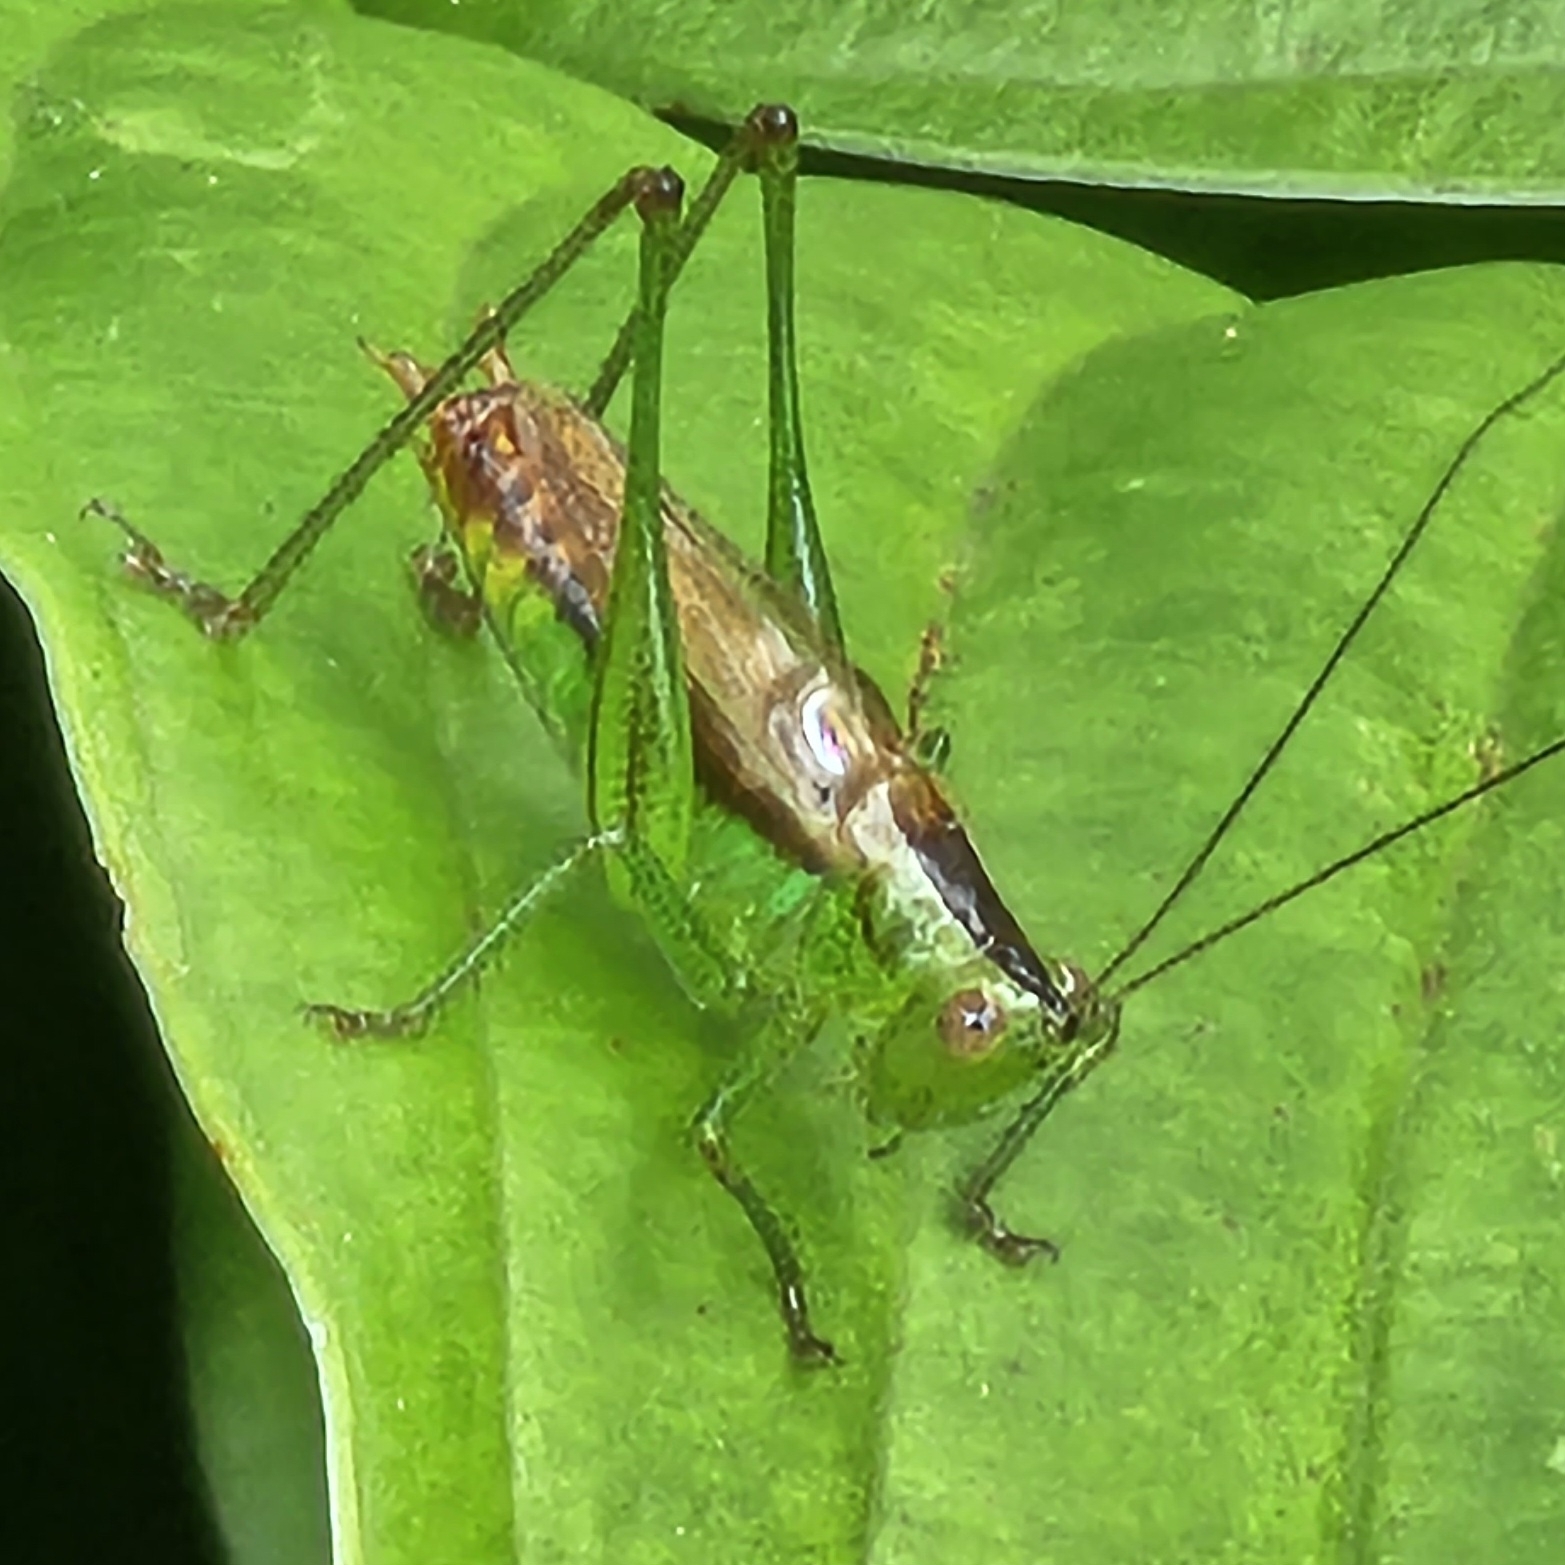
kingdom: Animalia
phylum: Arthropoda
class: Insecta
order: Orthoptera
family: Tettigoniidae
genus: Conocephalus
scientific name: Conocephalus brevipennis
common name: Short-winged meadow katydid
